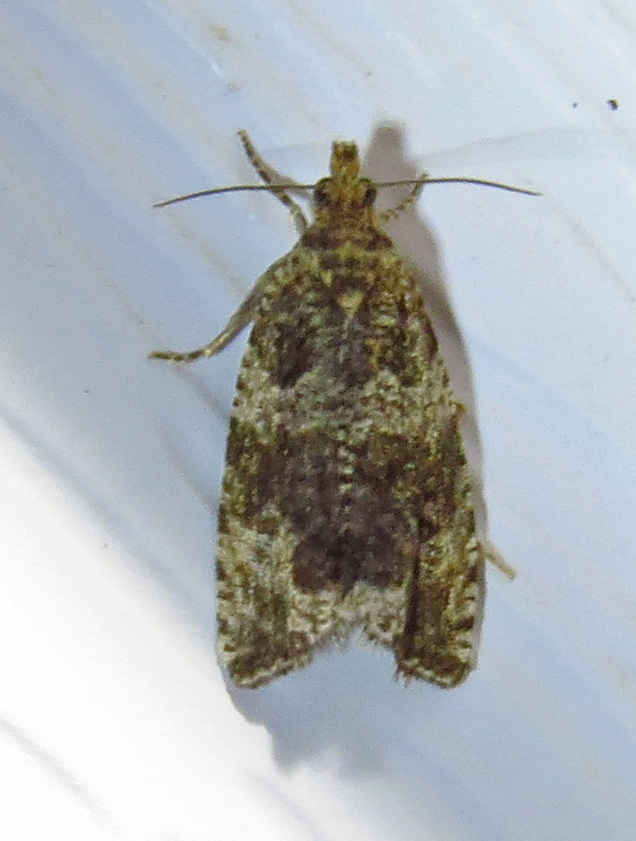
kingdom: Animalia
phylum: Arthropoda
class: Insecta
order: Lepidoptera
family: Tortricidae
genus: Celypha
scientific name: Celypha cespitana
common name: Thyme marble
